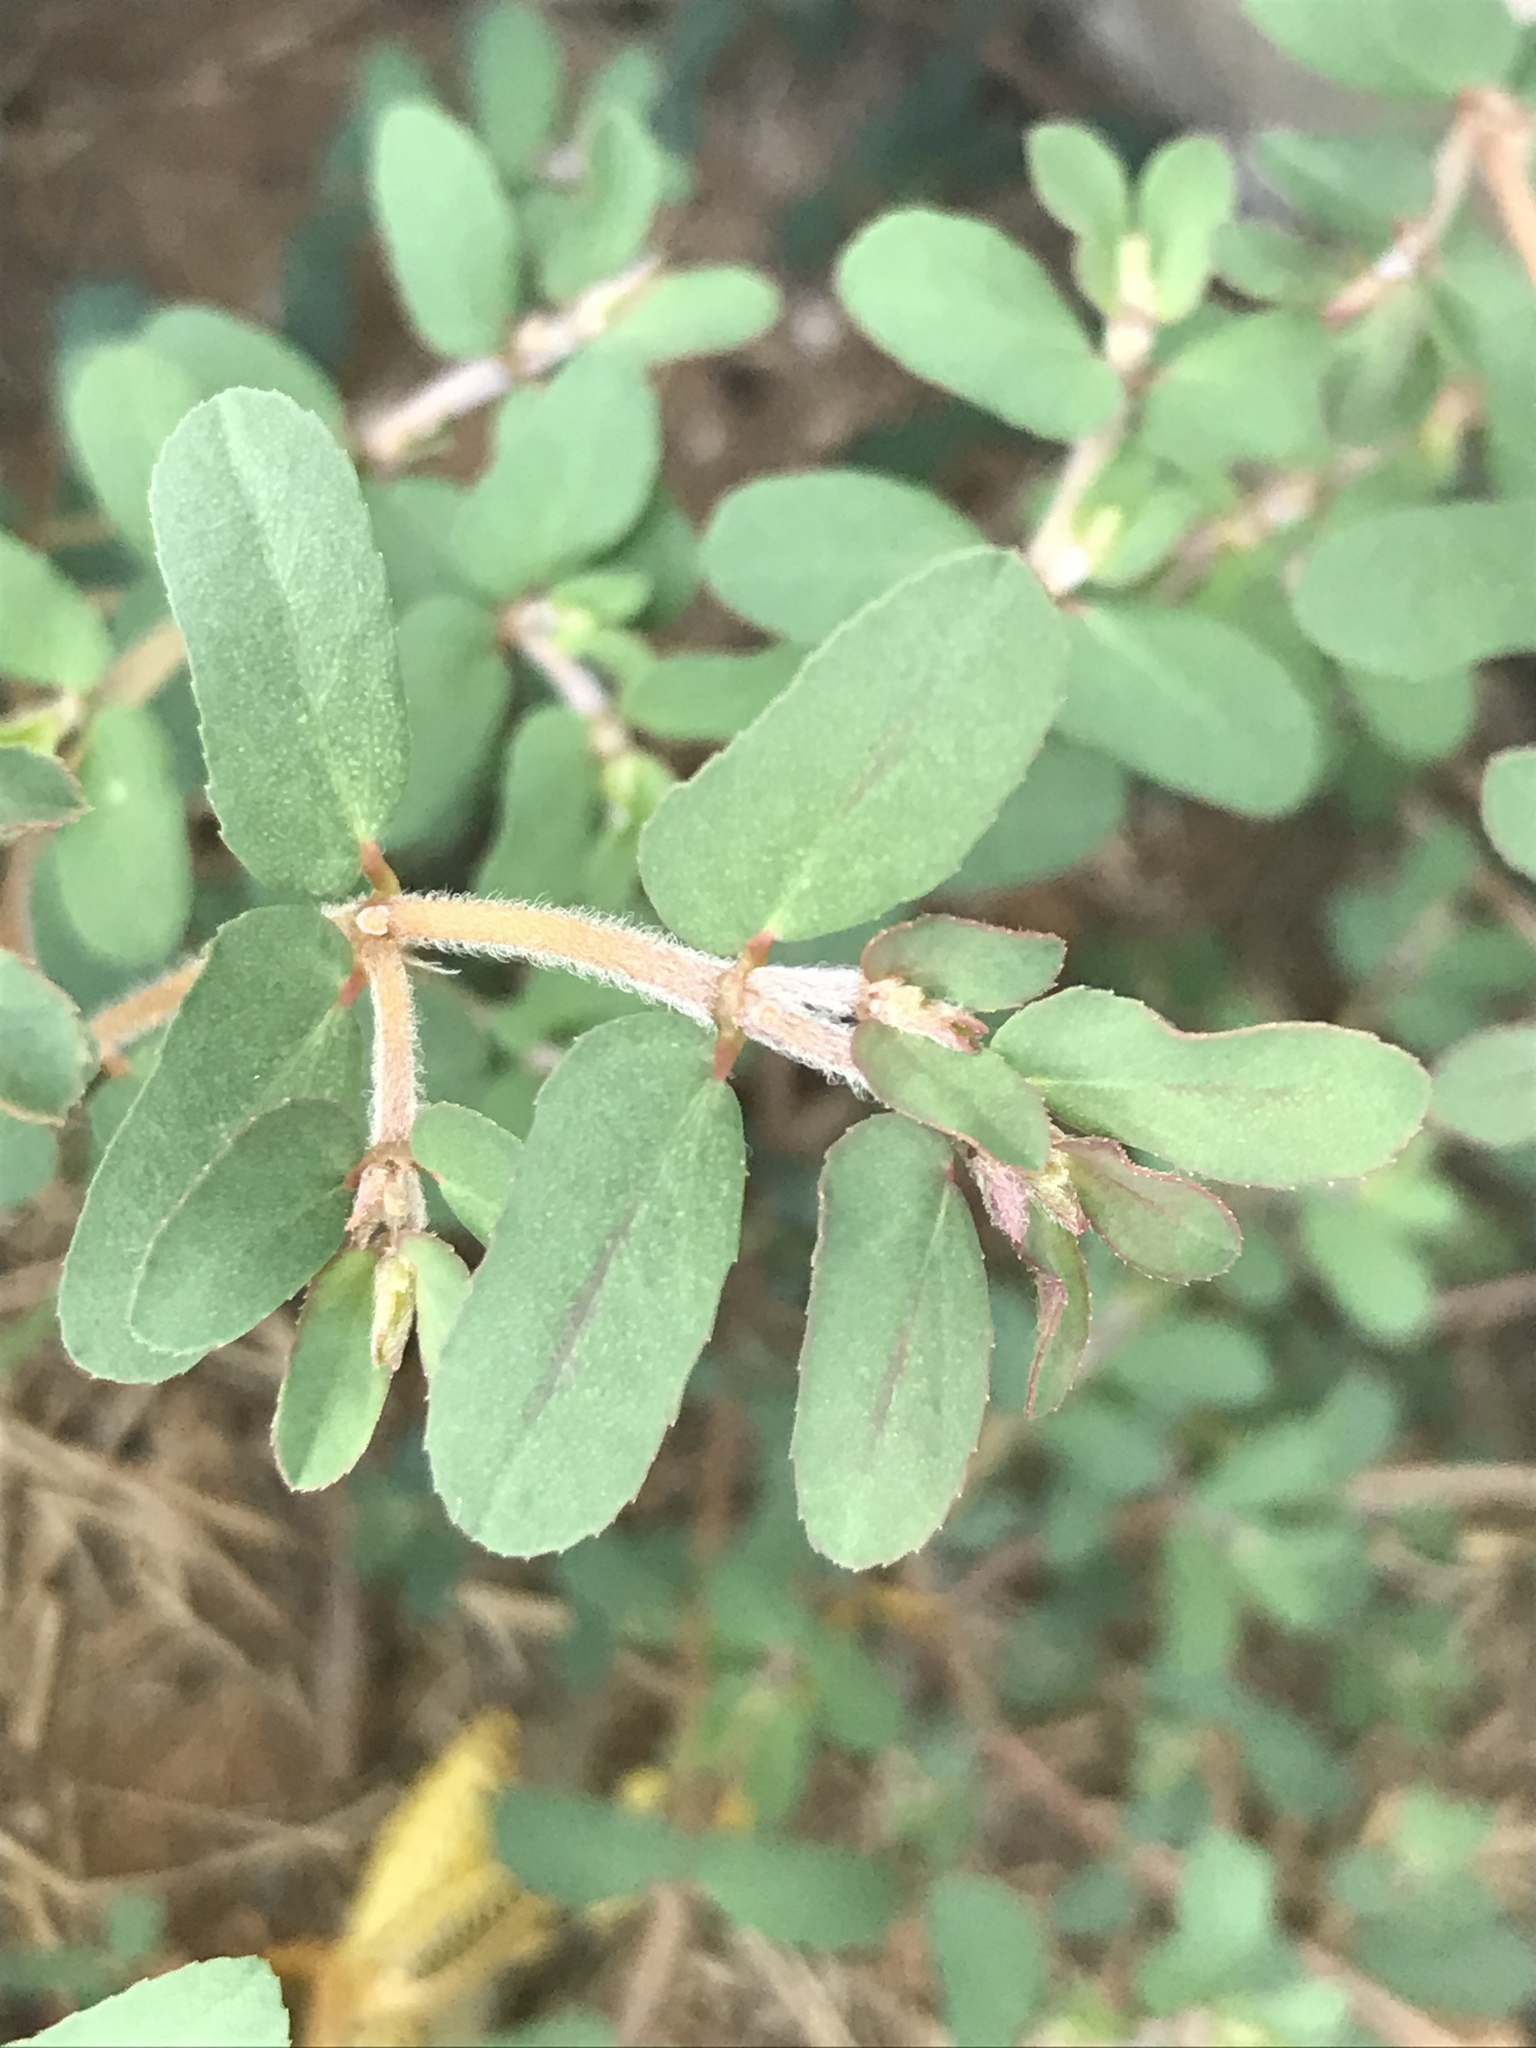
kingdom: Plantae
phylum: Tracheophyta
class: Magnoliopsida
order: Malpighiales
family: Euphorbiaceae
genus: Euphorbia
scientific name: Euphorbia maculata
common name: Spotted spurge
